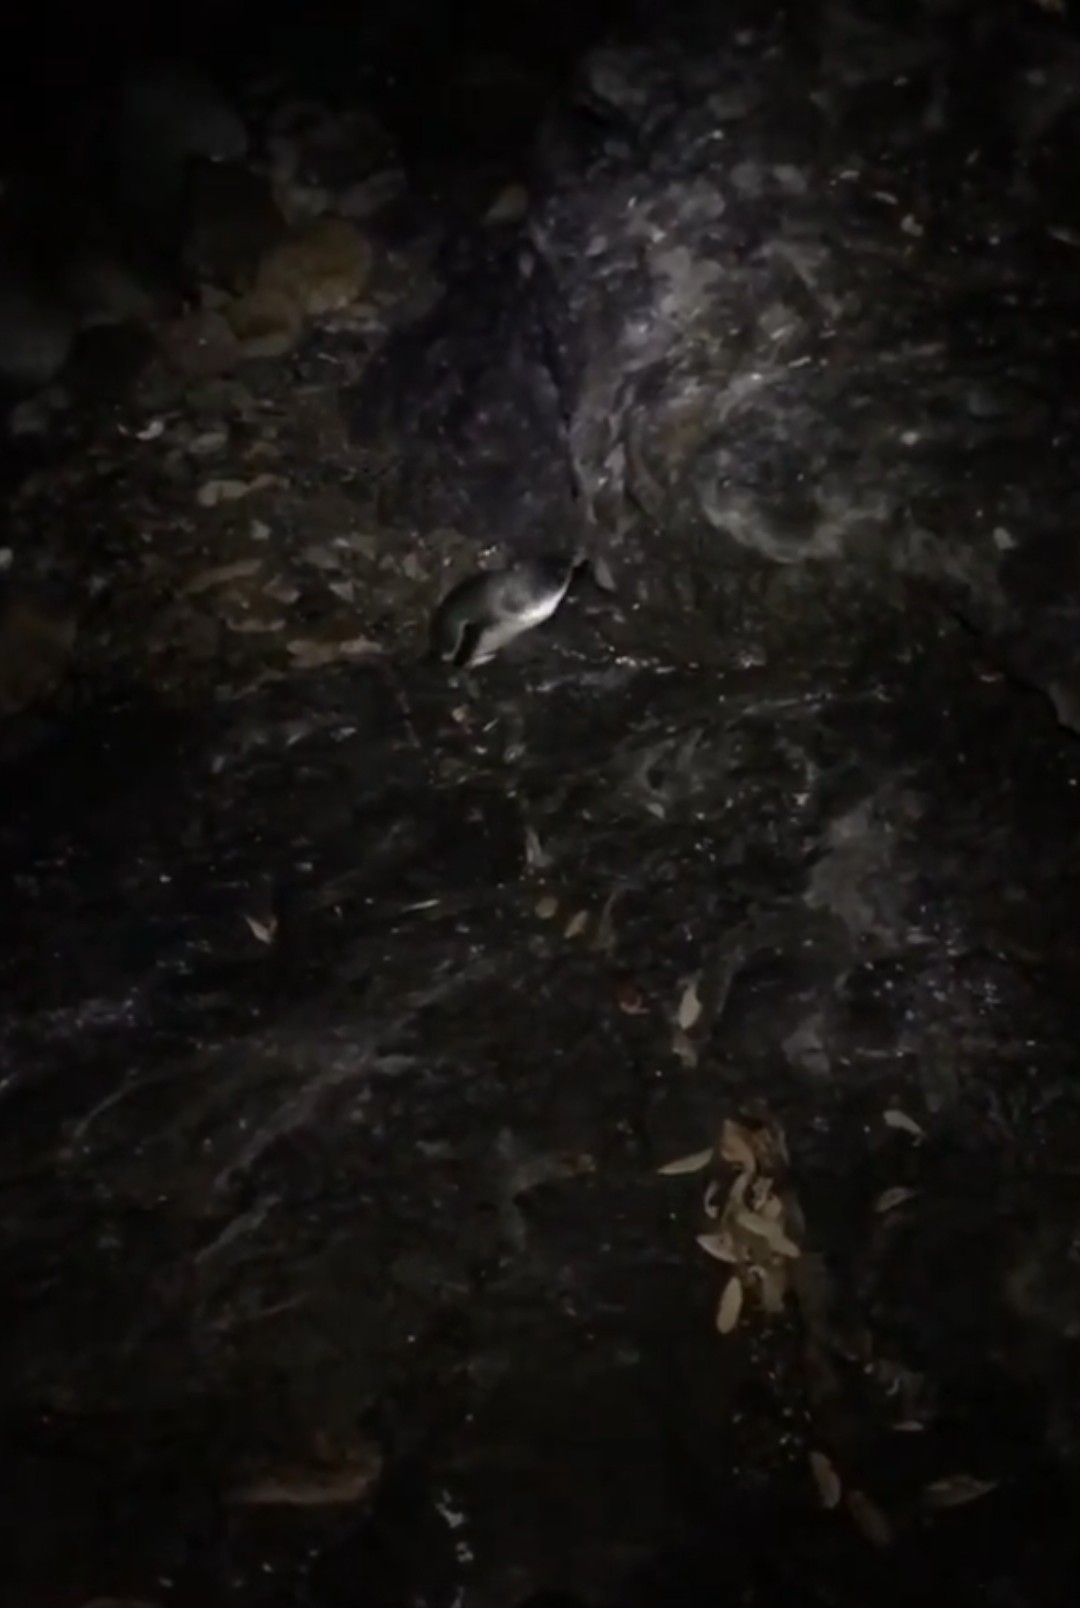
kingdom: Animalia
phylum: Chordata
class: Aves
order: Sphenisciformes
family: Spheniscidae
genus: Eudyptula
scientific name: Eudyptula minor
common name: Little penguin
